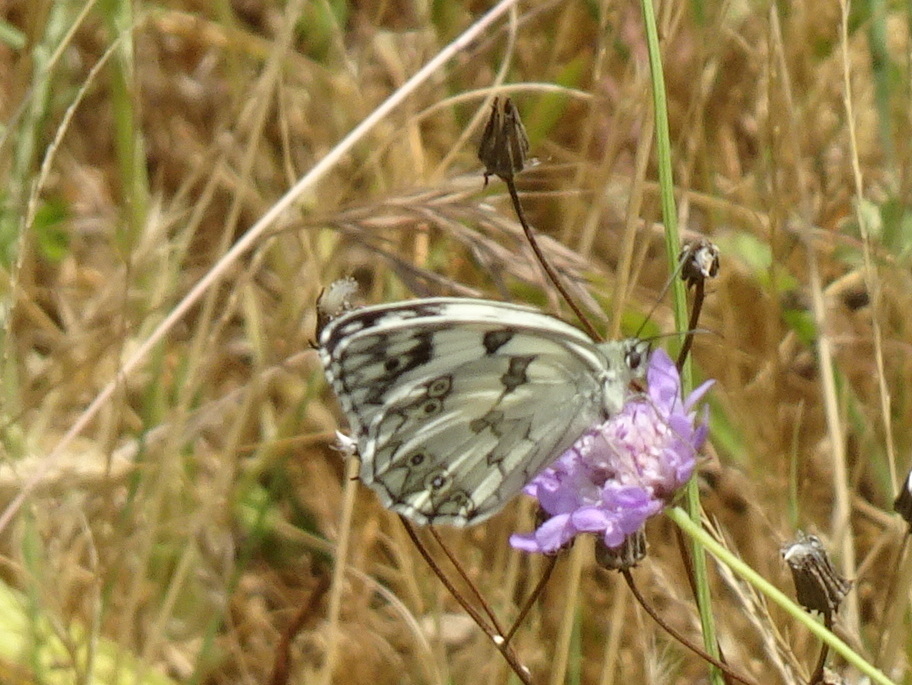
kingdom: Animalia
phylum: Arthropoda
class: Insecta
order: Lepidoptera
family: Nymphalidae
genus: Melanargia
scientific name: Melanargia lachesis
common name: Iberian marbled white
